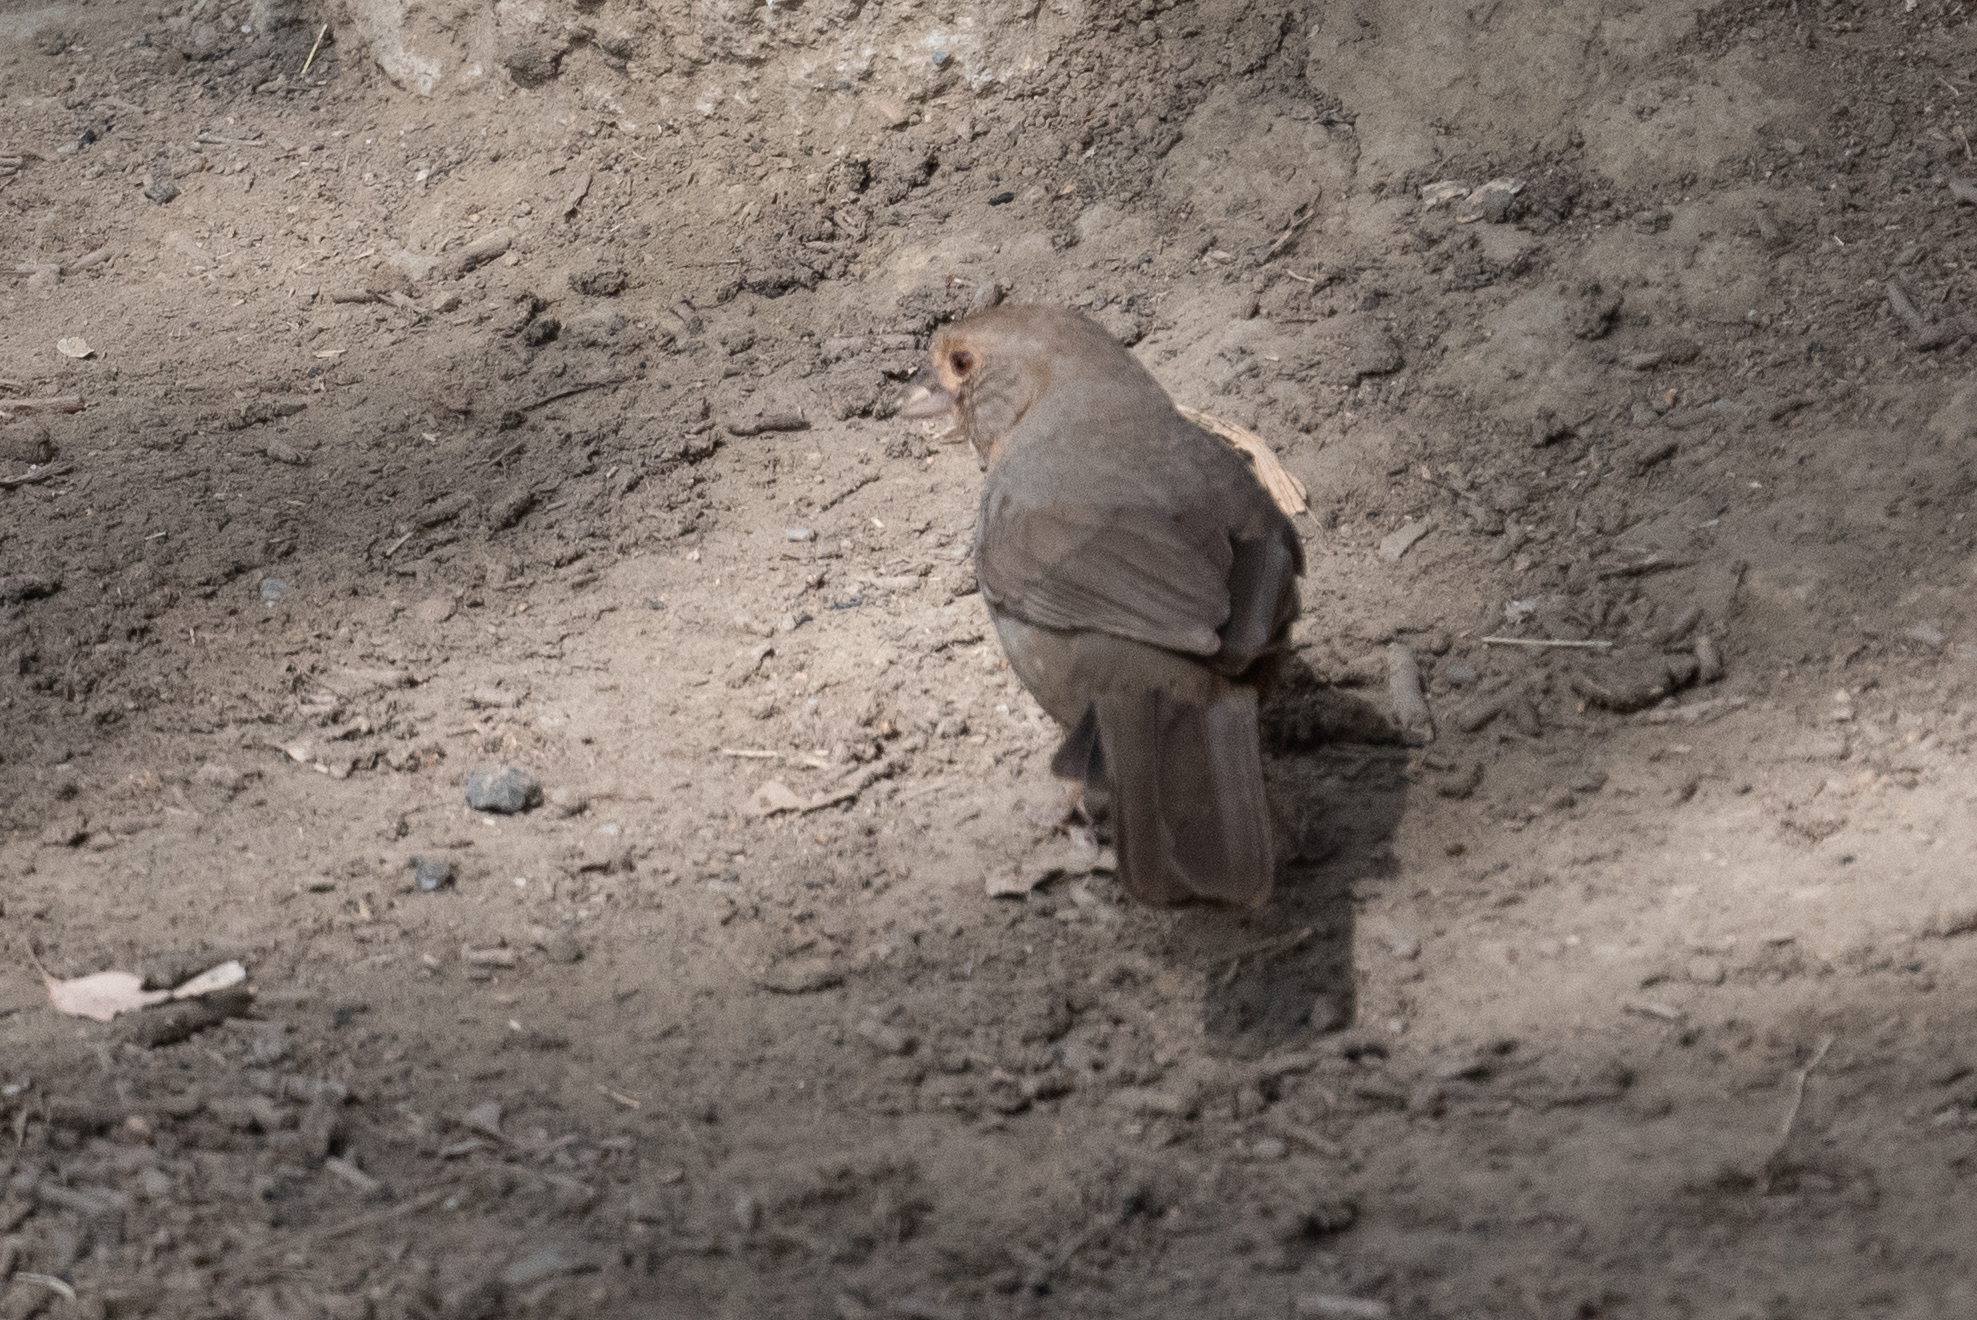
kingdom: Animalia
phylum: Chordata
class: Aves
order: Passeriformes
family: Passerellidae
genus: Melozone
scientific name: Melozone crissalis
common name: California towhee
